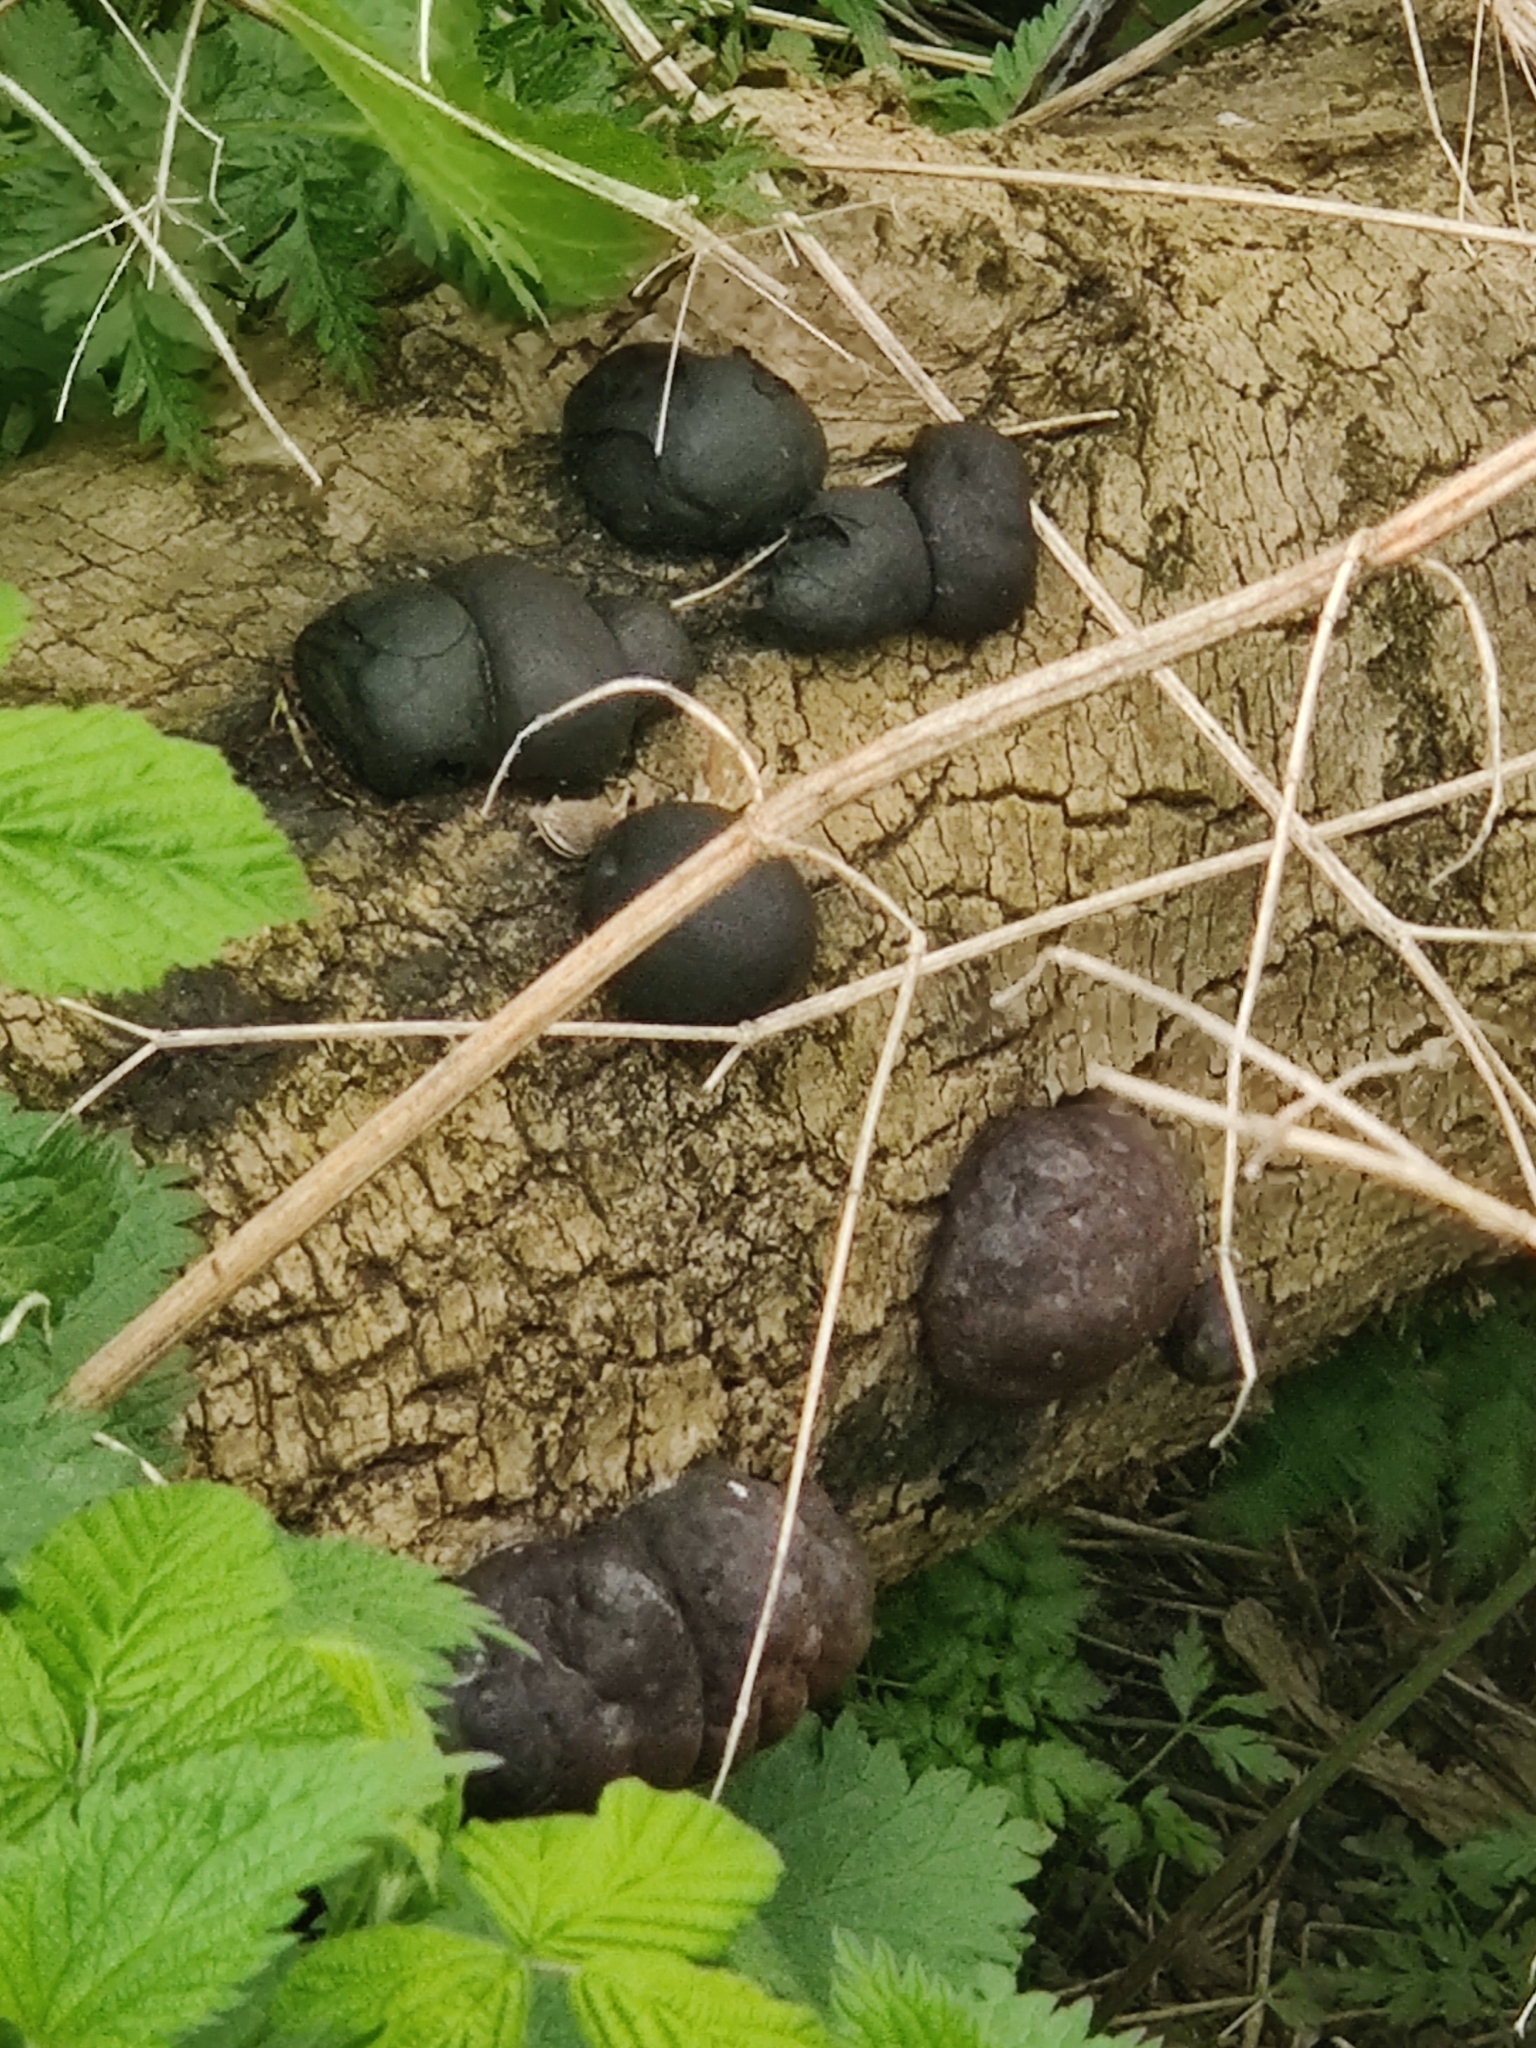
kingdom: Fungi
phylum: Ascomycota
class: Sordariomycetes
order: Xylariales
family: Hypoxylaceae
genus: Daldinia
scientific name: Daldinia concentrica
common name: Cramp balls
